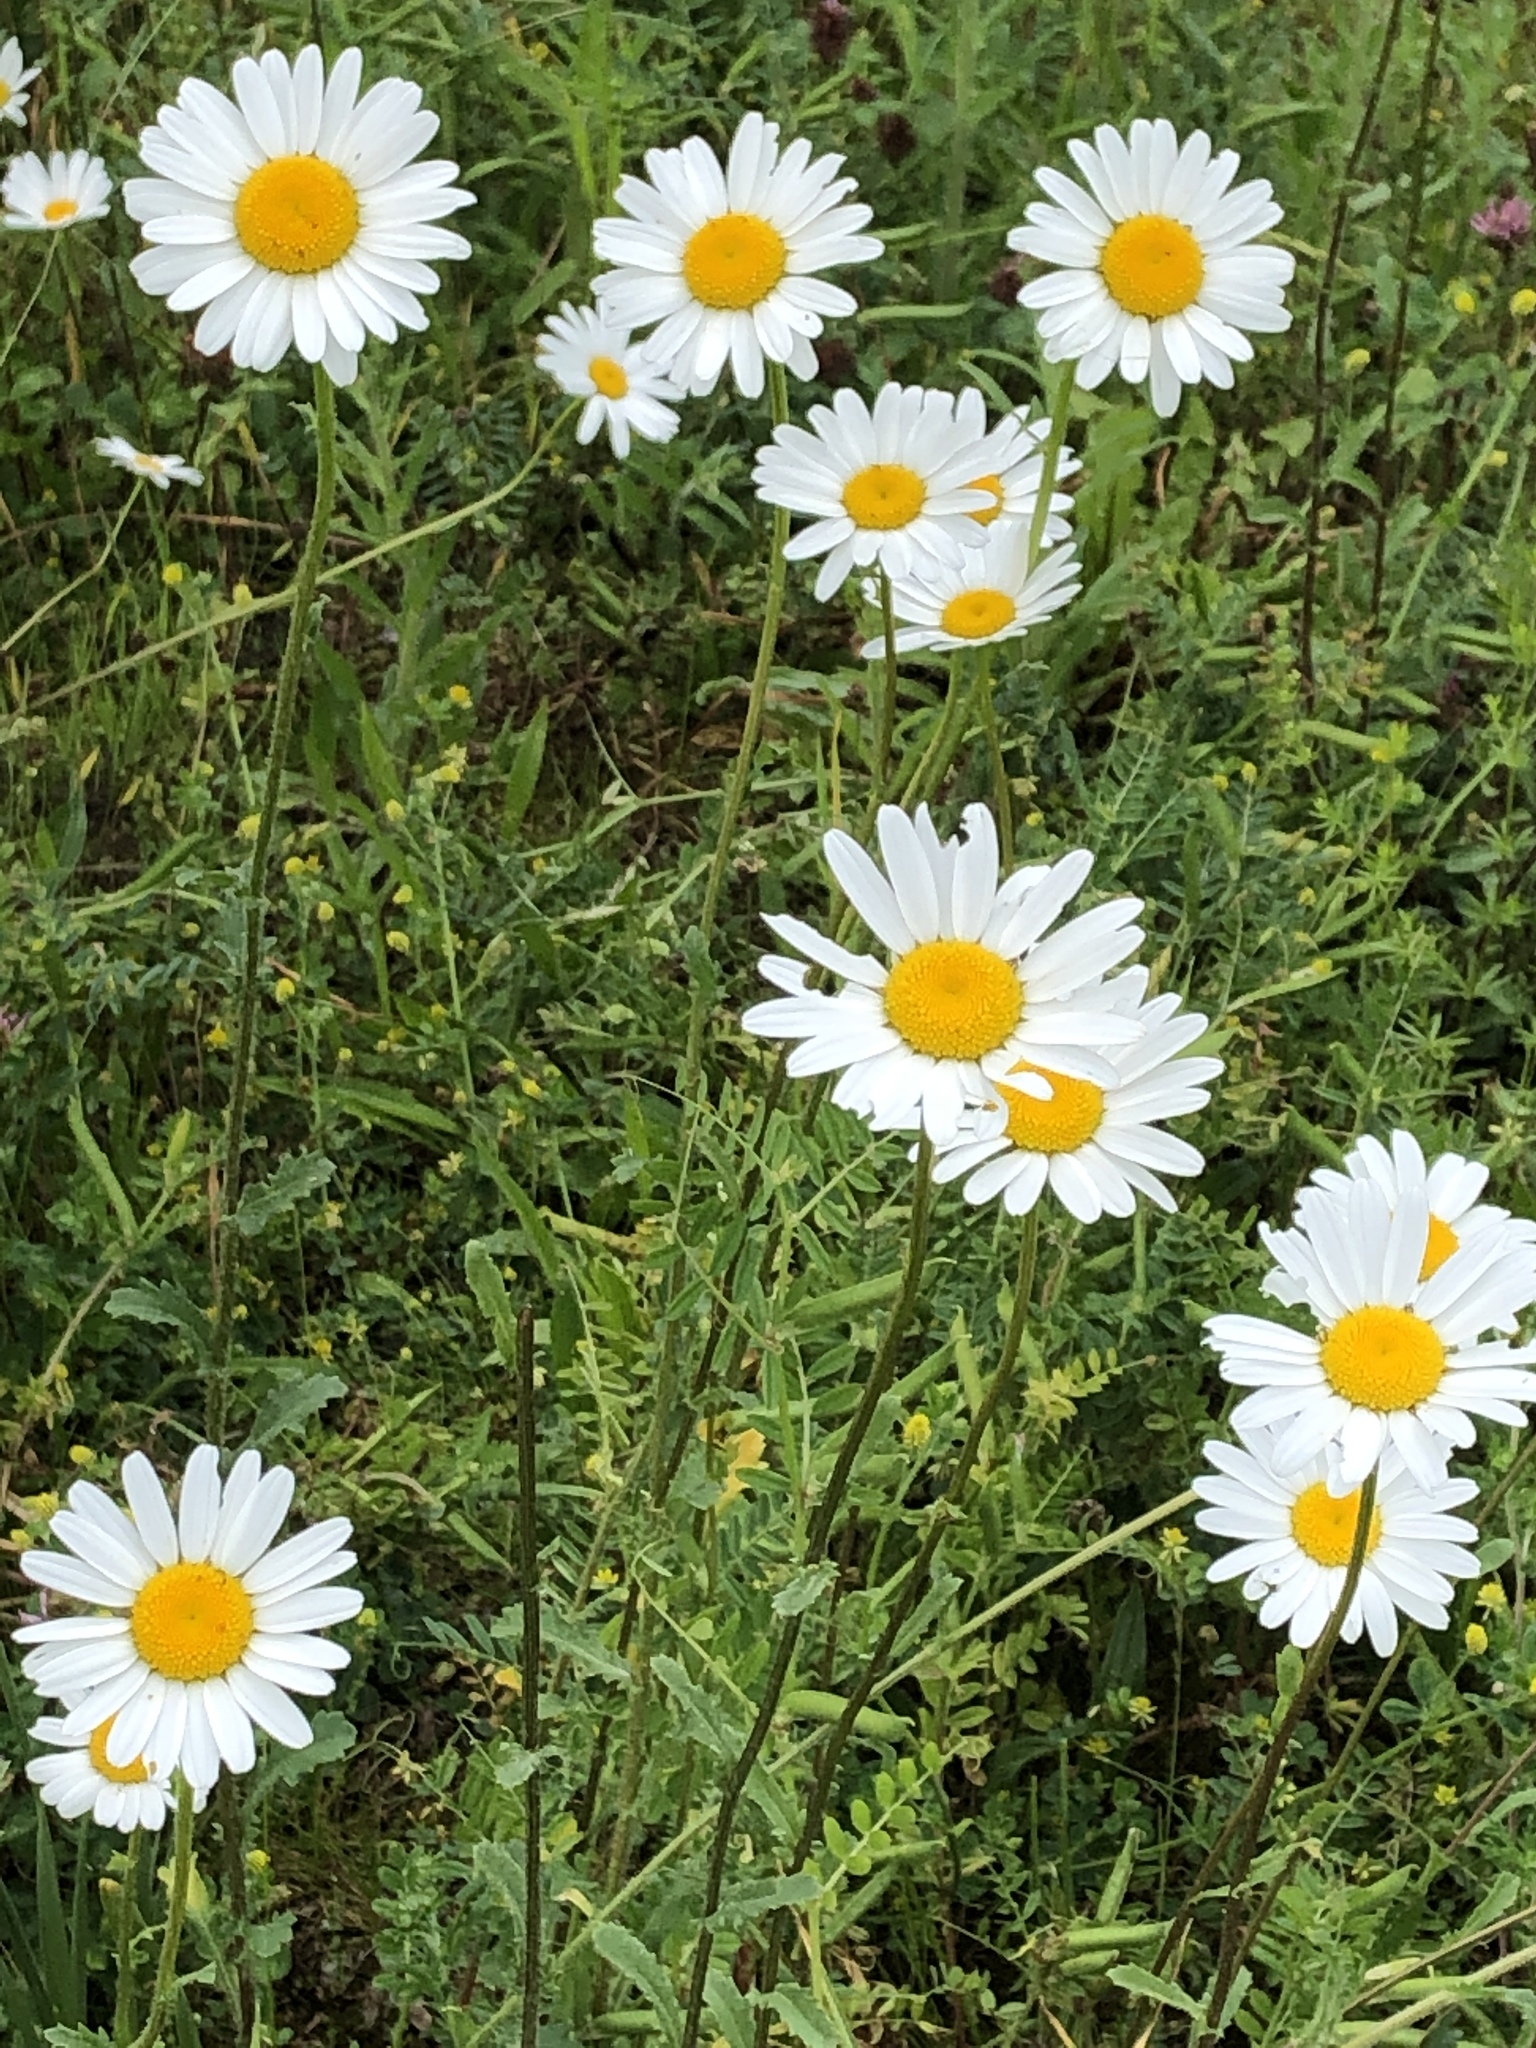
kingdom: Plantae
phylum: Tracheophyta
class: Magnoliopsida
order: Asterales
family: Asteraceae
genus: Leucanthemum
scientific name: Leucanthemum vulgare
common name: Oxeye daisy
